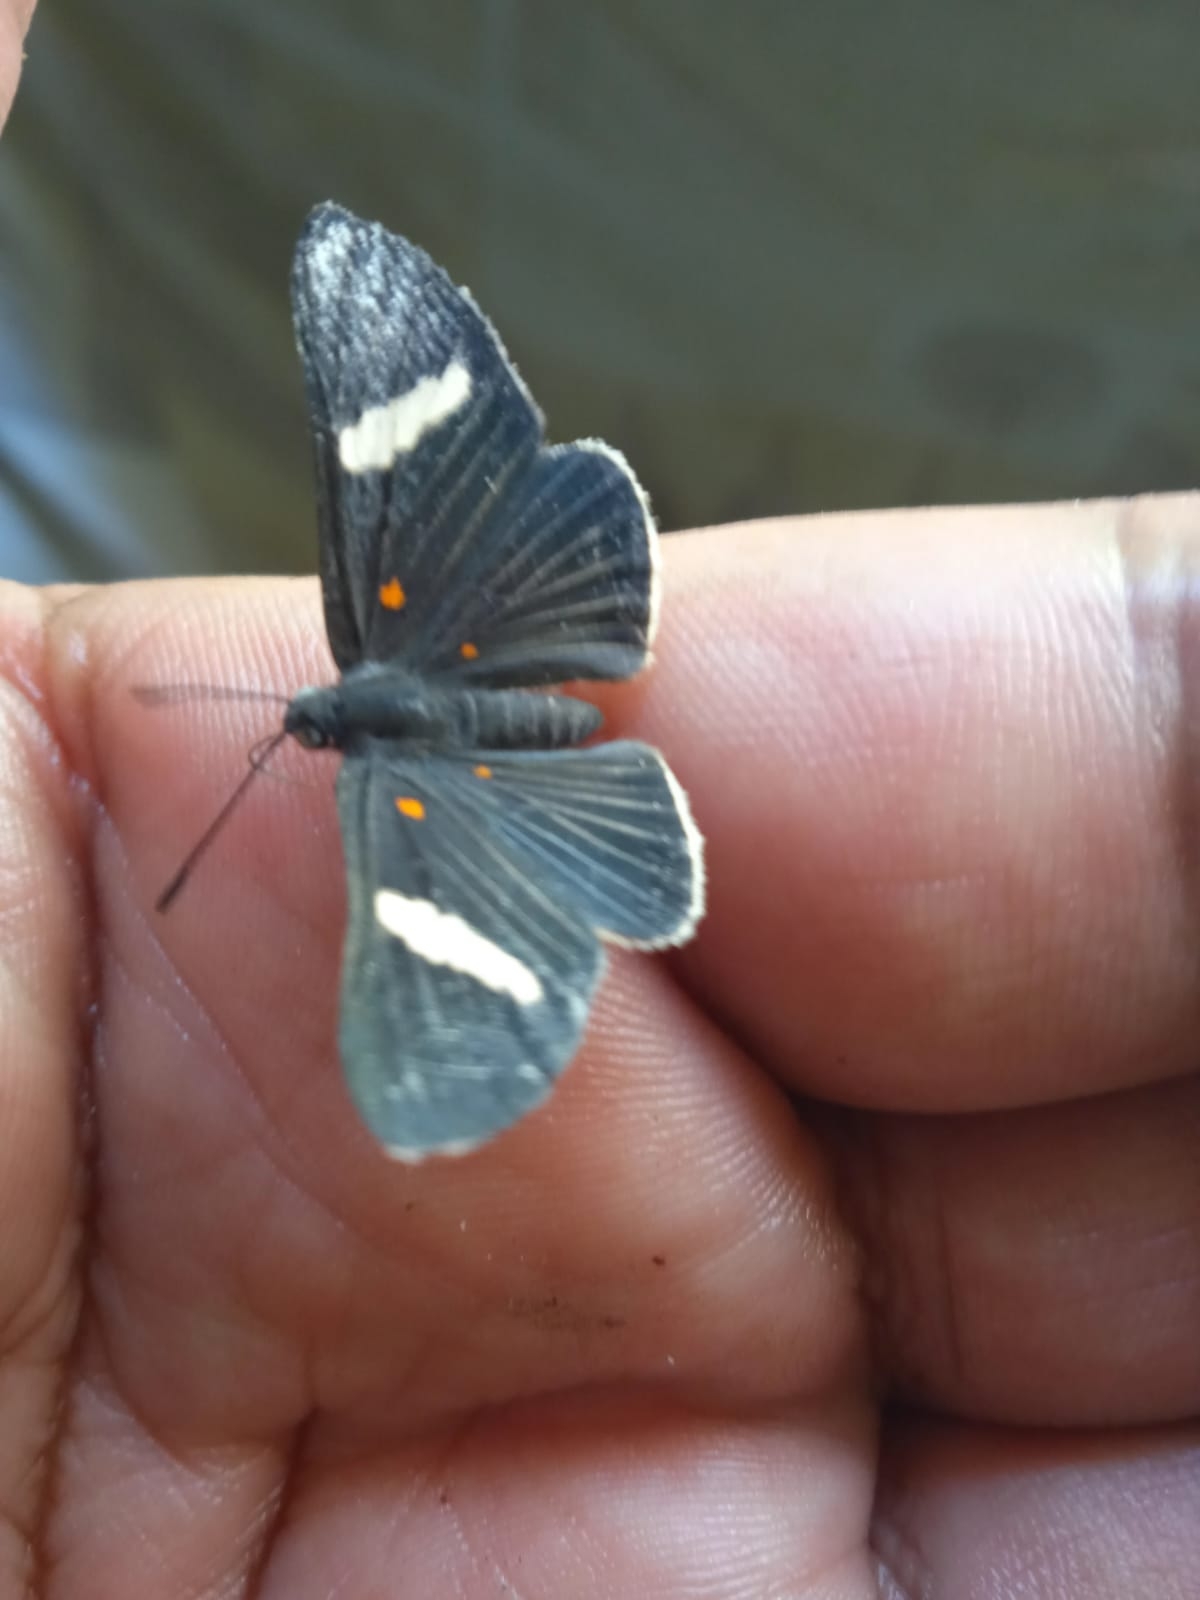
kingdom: Animalia
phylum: Arthropoda
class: Insecta
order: Lepidoptera
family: Lycaenidae
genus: Melanis
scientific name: Melanis
